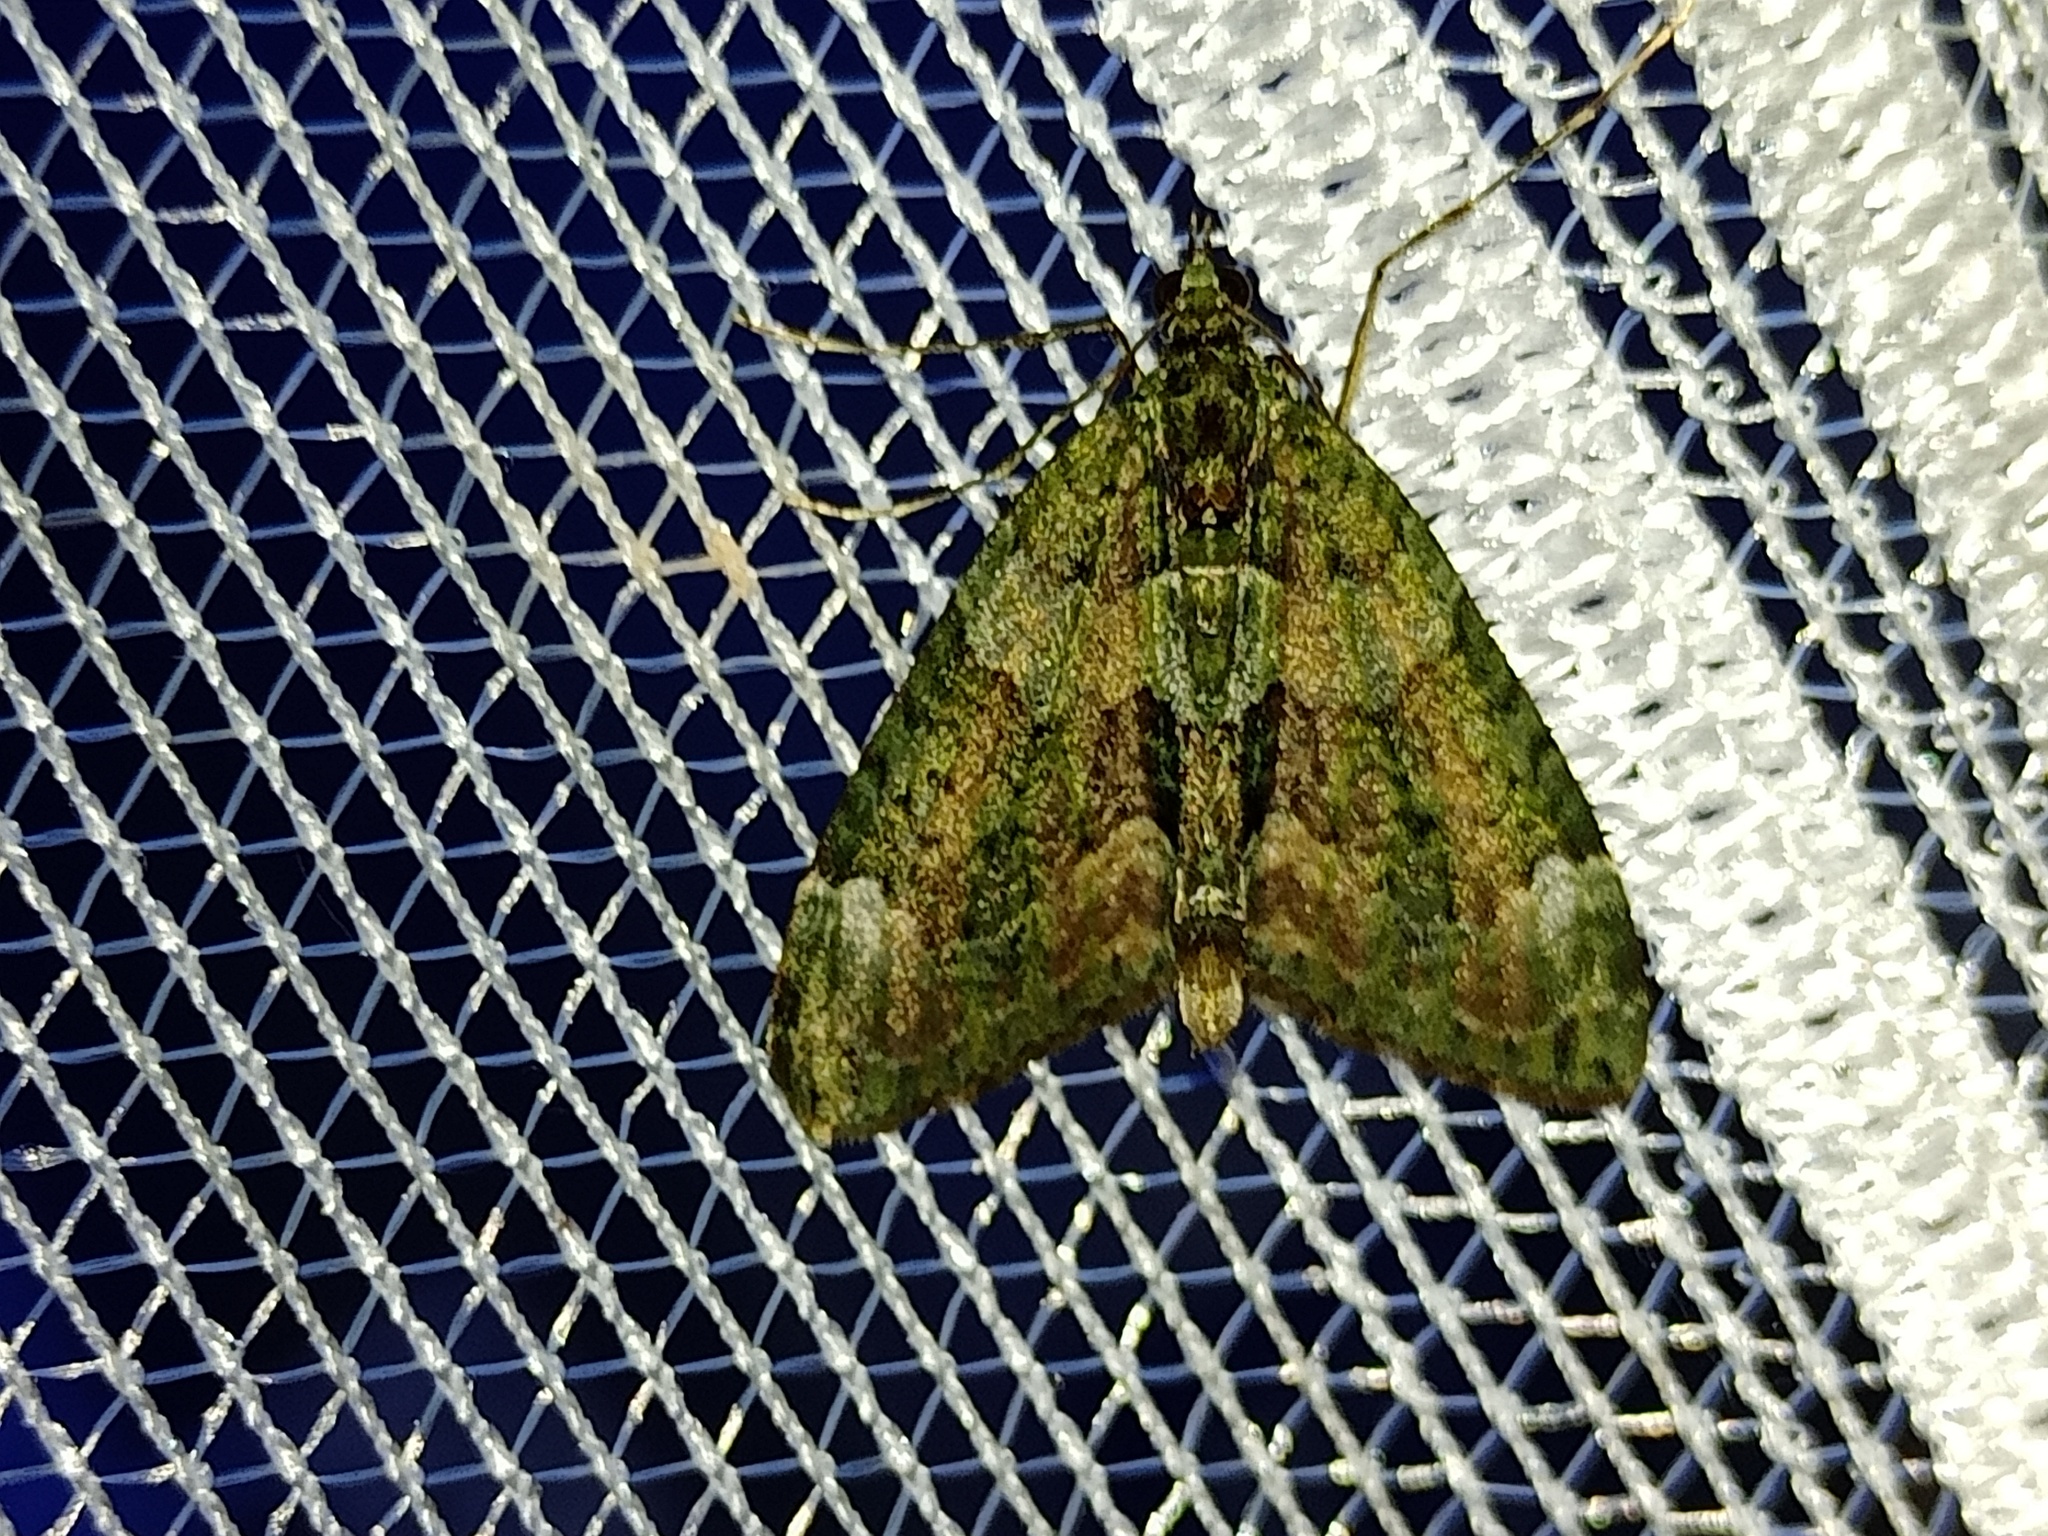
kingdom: Animalia
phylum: Arthropoda
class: Insecta
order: Lepidoptera
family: Geometridae
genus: Chloroclysta
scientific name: Chloroclysta siterata
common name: Red-green carpet
